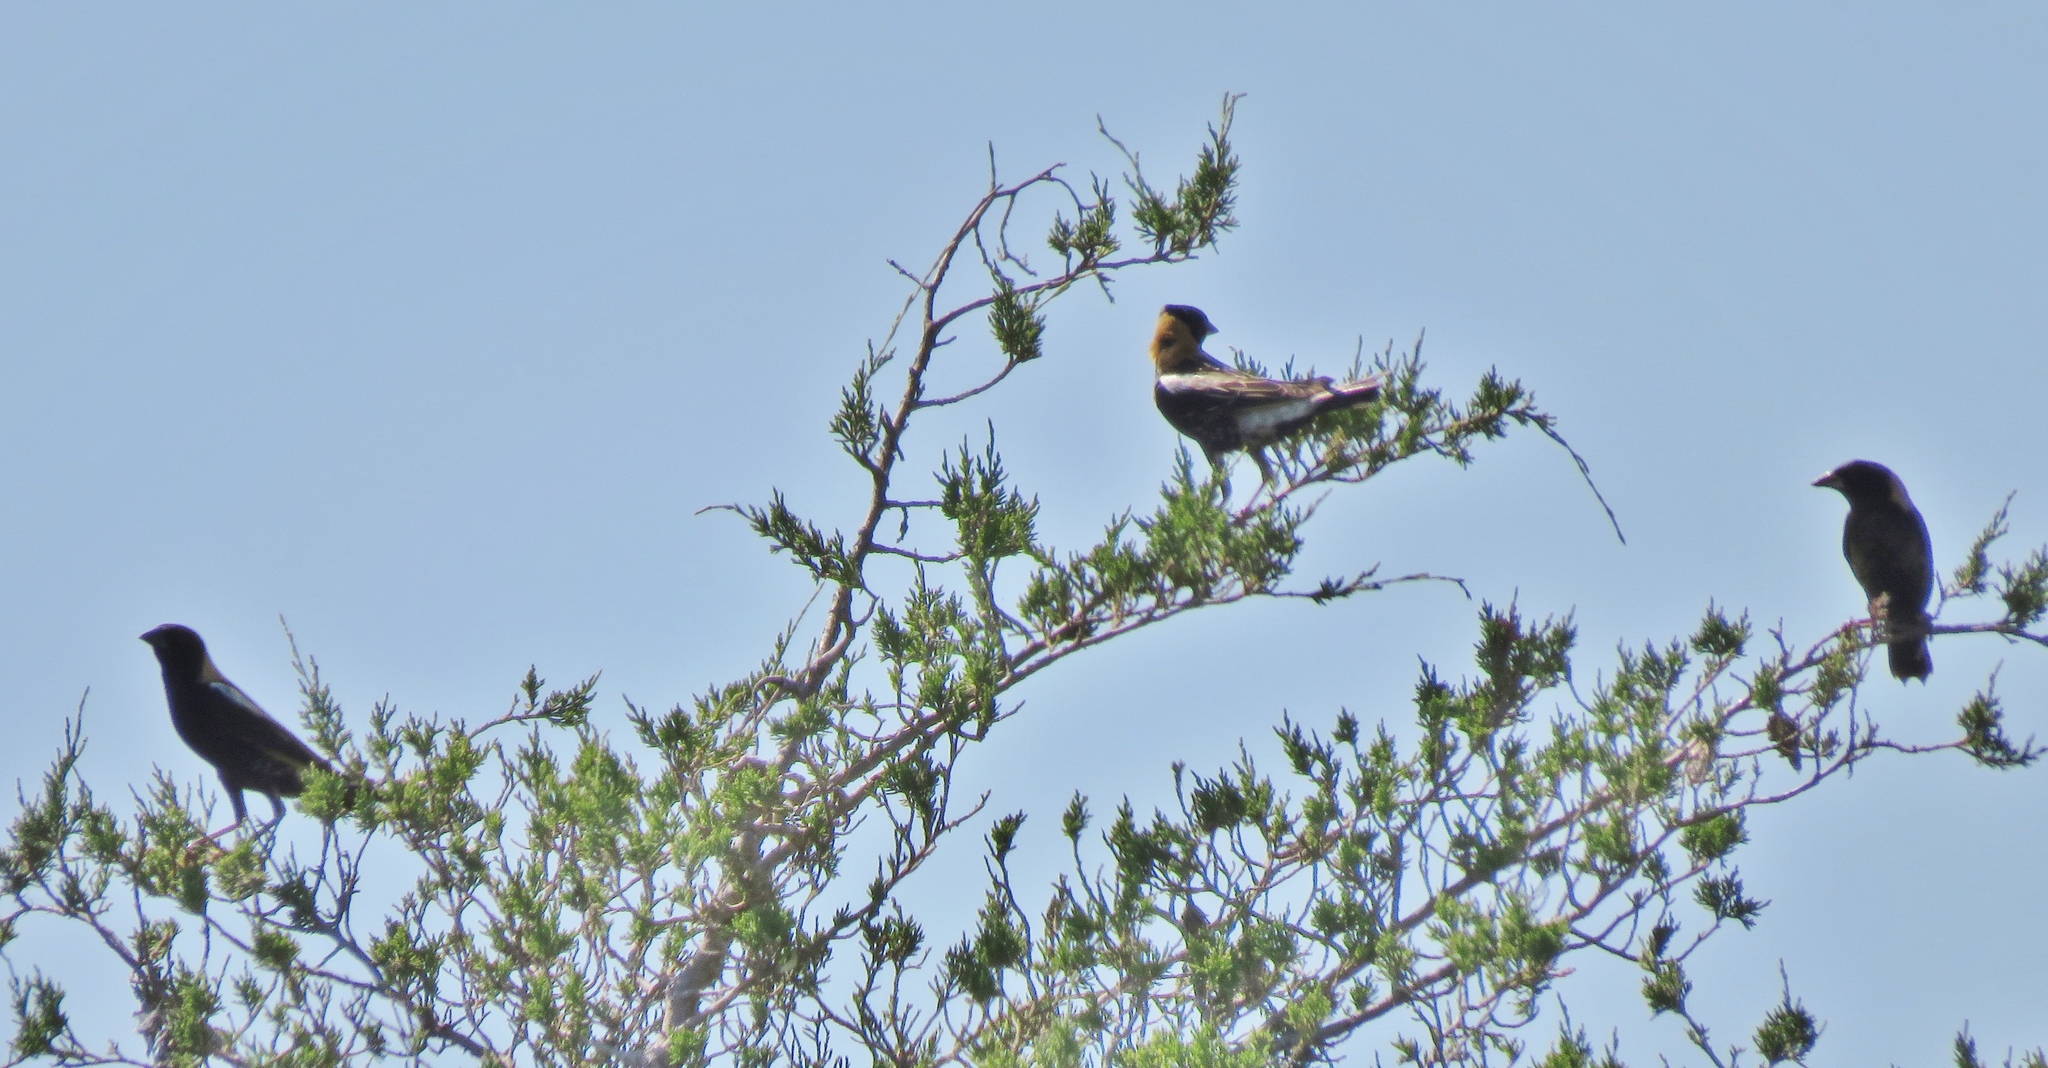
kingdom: Animalia
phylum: Chordata
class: Aves
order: Passeriformes
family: Icteridae
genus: Dolichonyx
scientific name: Dolichonyx oryzivorus
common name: Bobolink
